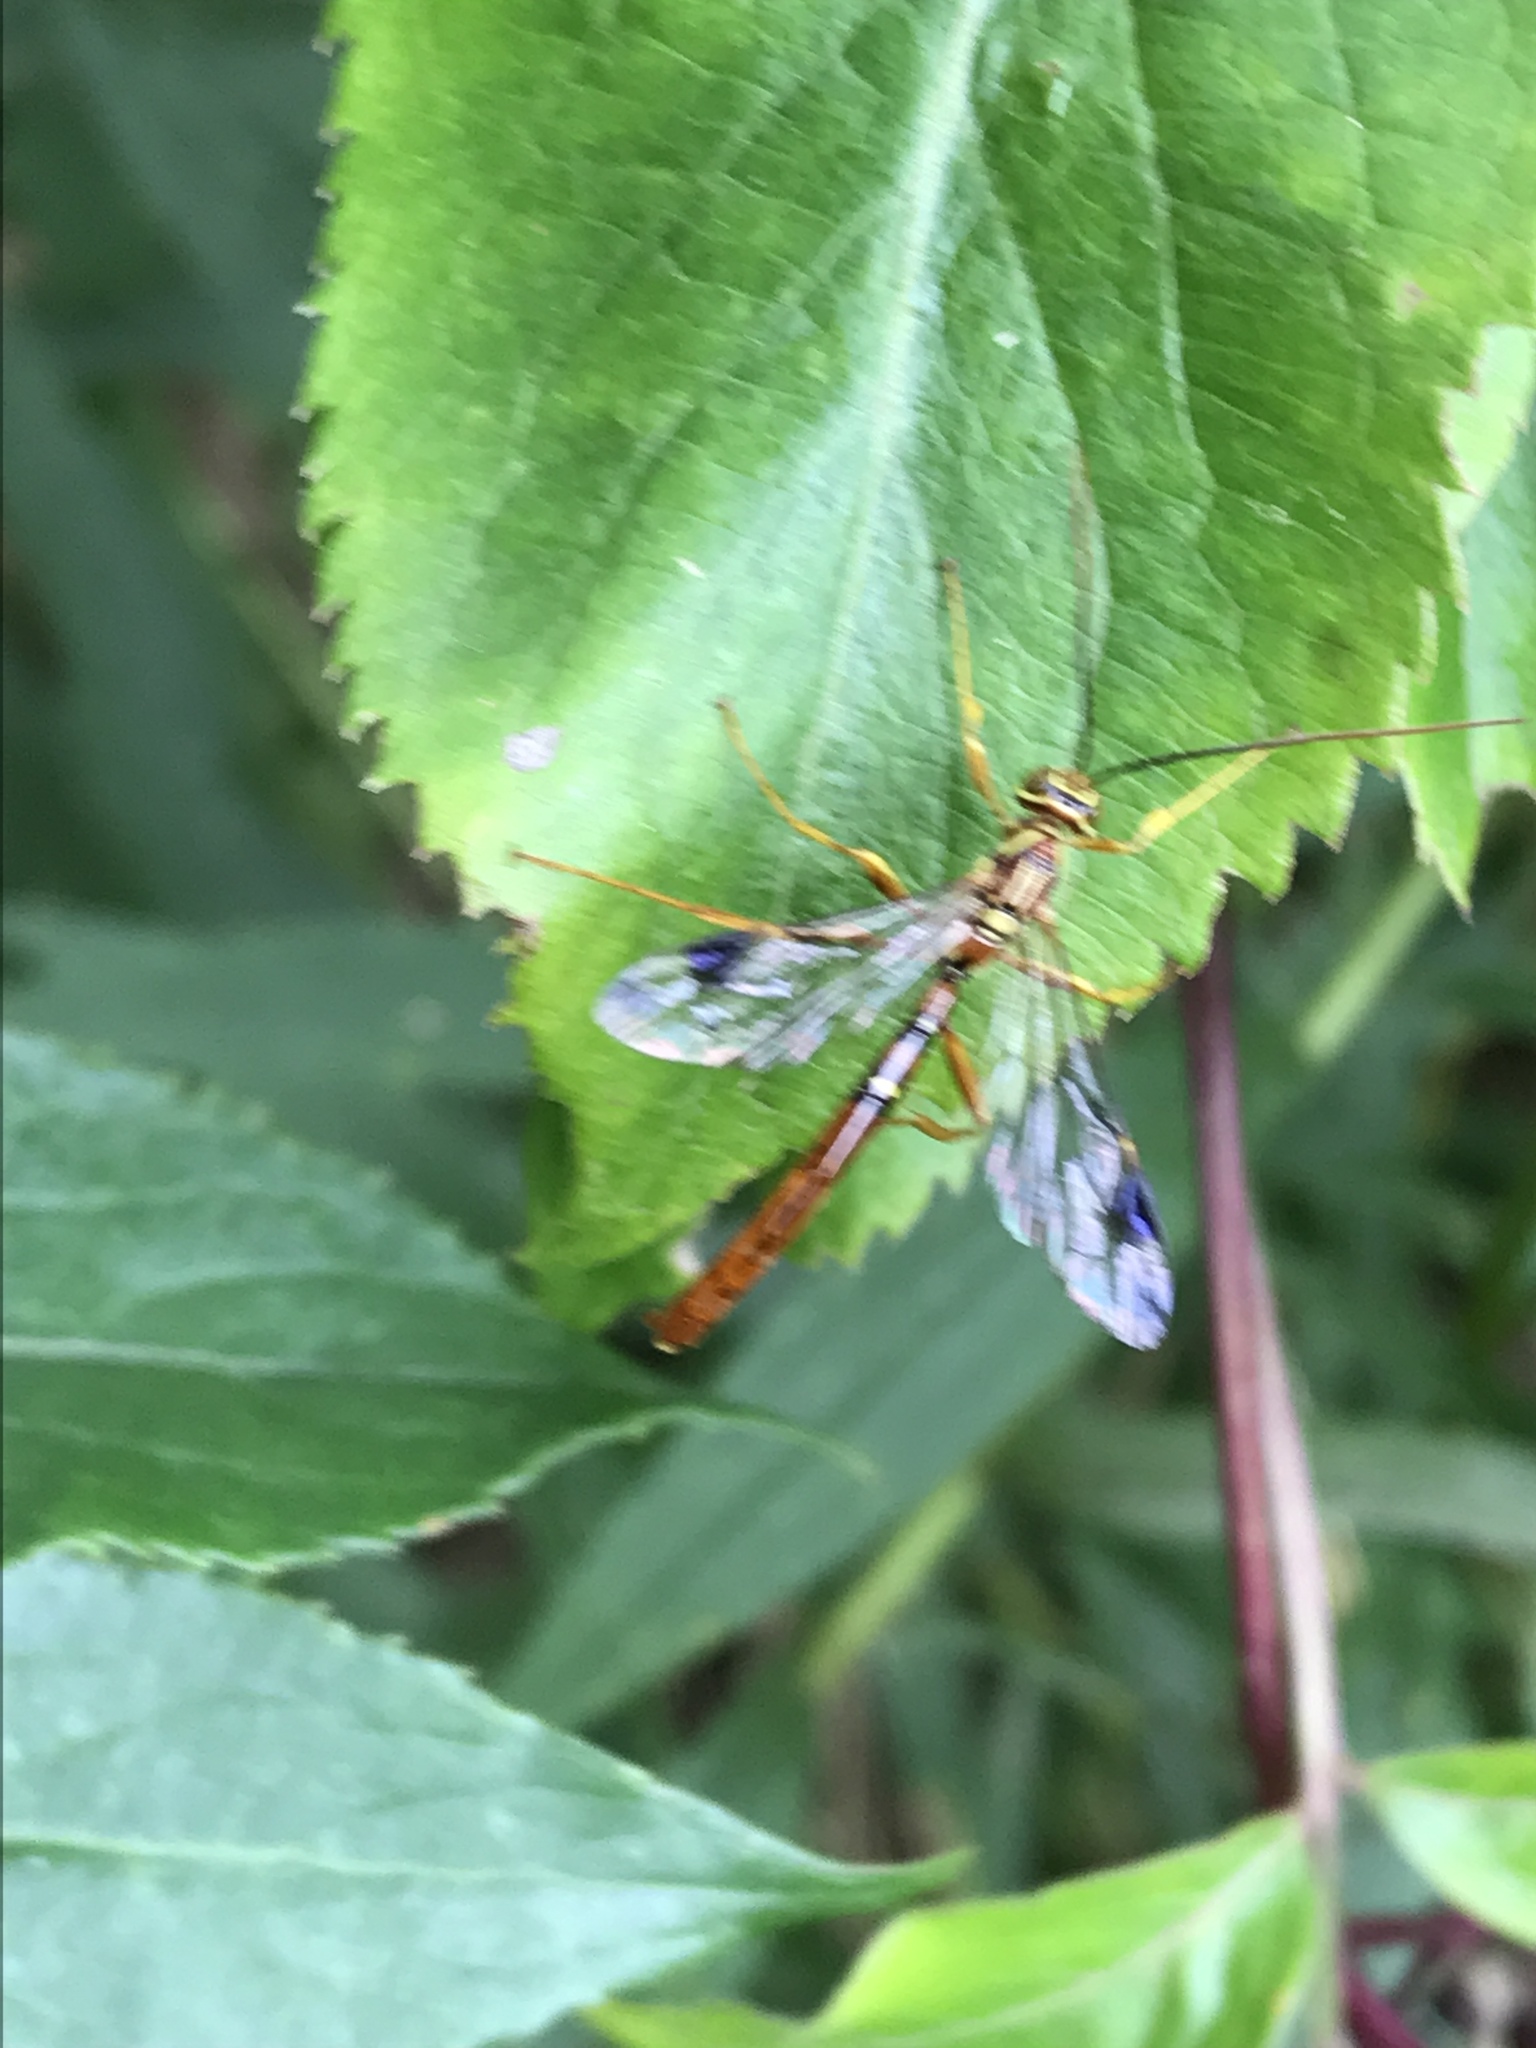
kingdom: Animalia
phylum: Arthropoda
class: Insecta
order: Hymenoptera
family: Ichneumonidae
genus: Megarhyssa
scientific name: Megarhyssa macrura
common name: Long-tailed giant ichneumonid wasp
